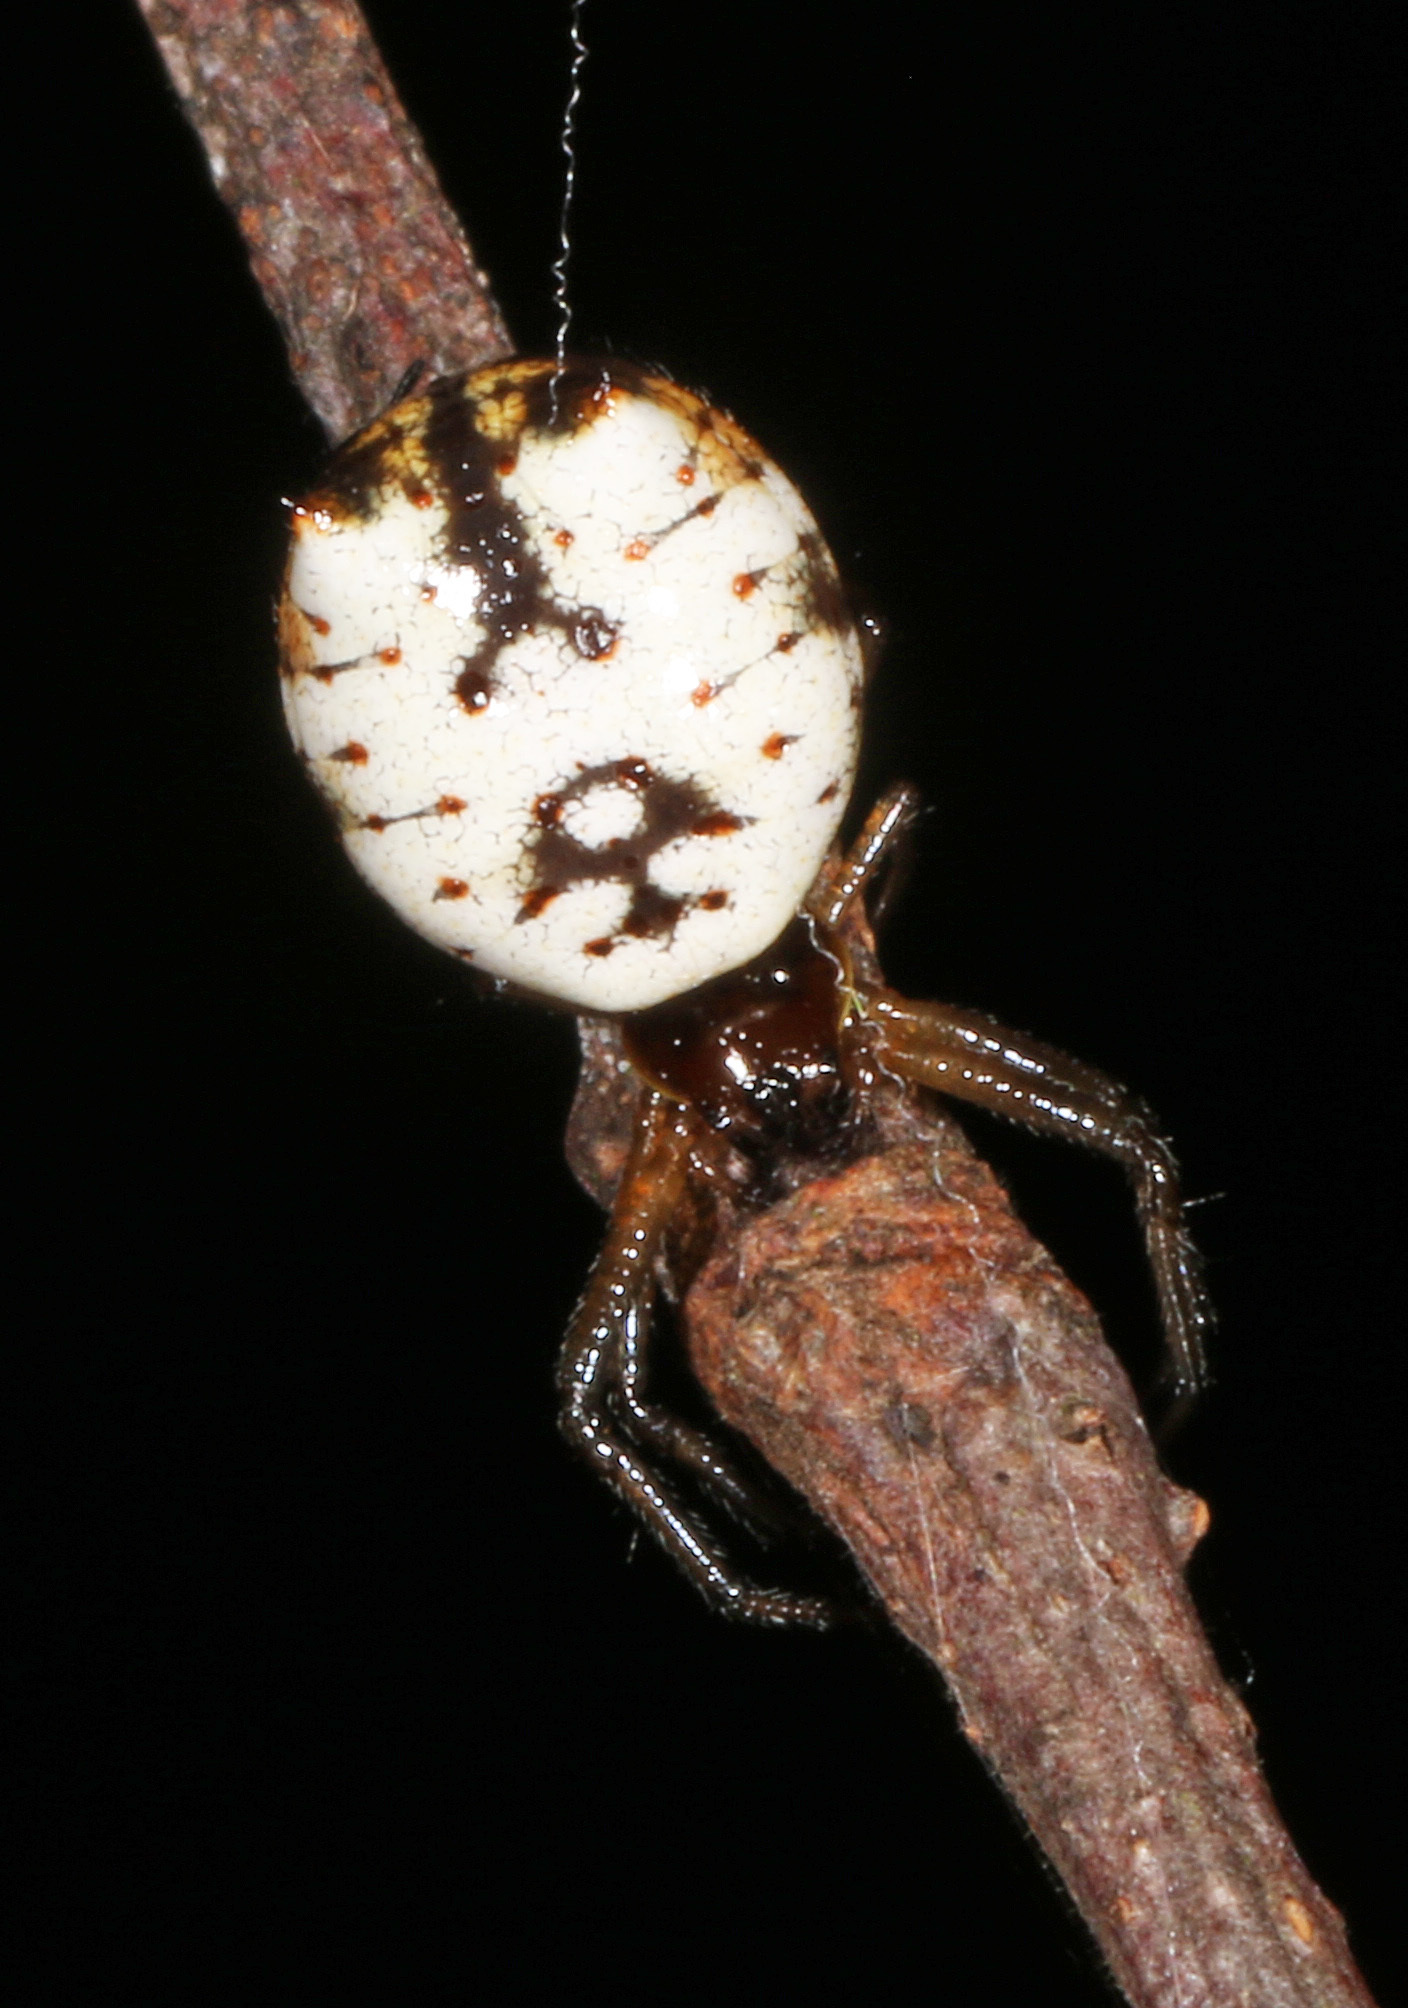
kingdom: Animalia
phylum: Arthropoda
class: Arachnida
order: Araneae
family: Araneidae
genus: Micrathena
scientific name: Micrathena mitrata
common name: Orb weavers
